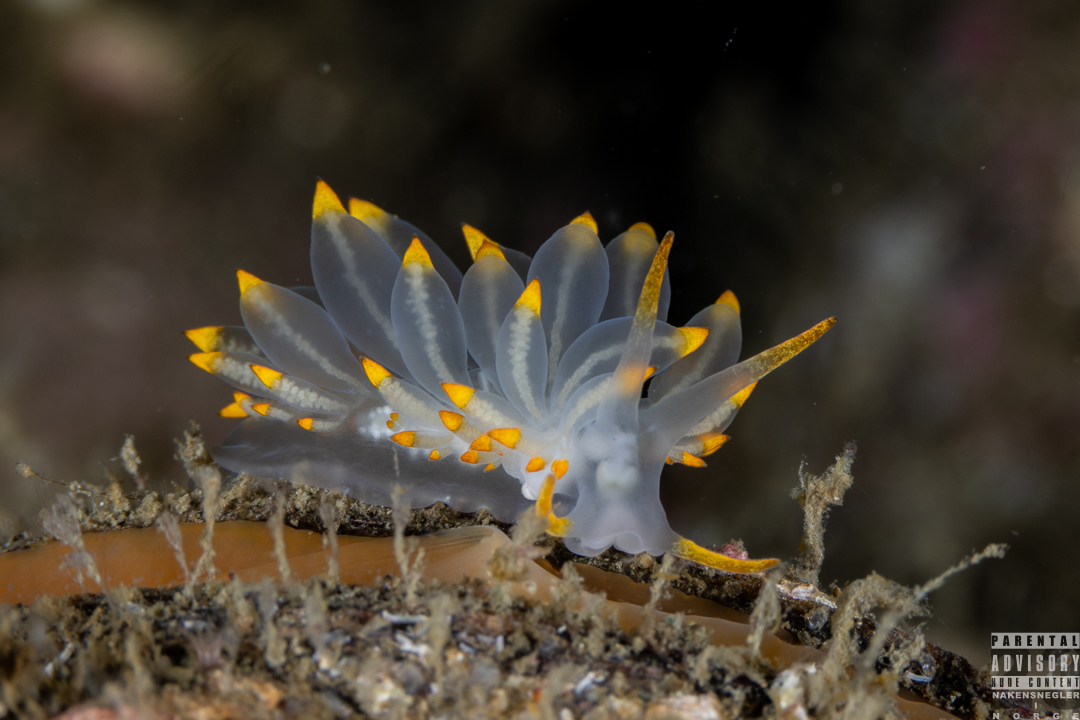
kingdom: Animalia
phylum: Mollusca
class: Gastropoda
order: Nudibranchia
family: Eubranchidae
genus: Amphorina
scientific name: Amphorina farrani
